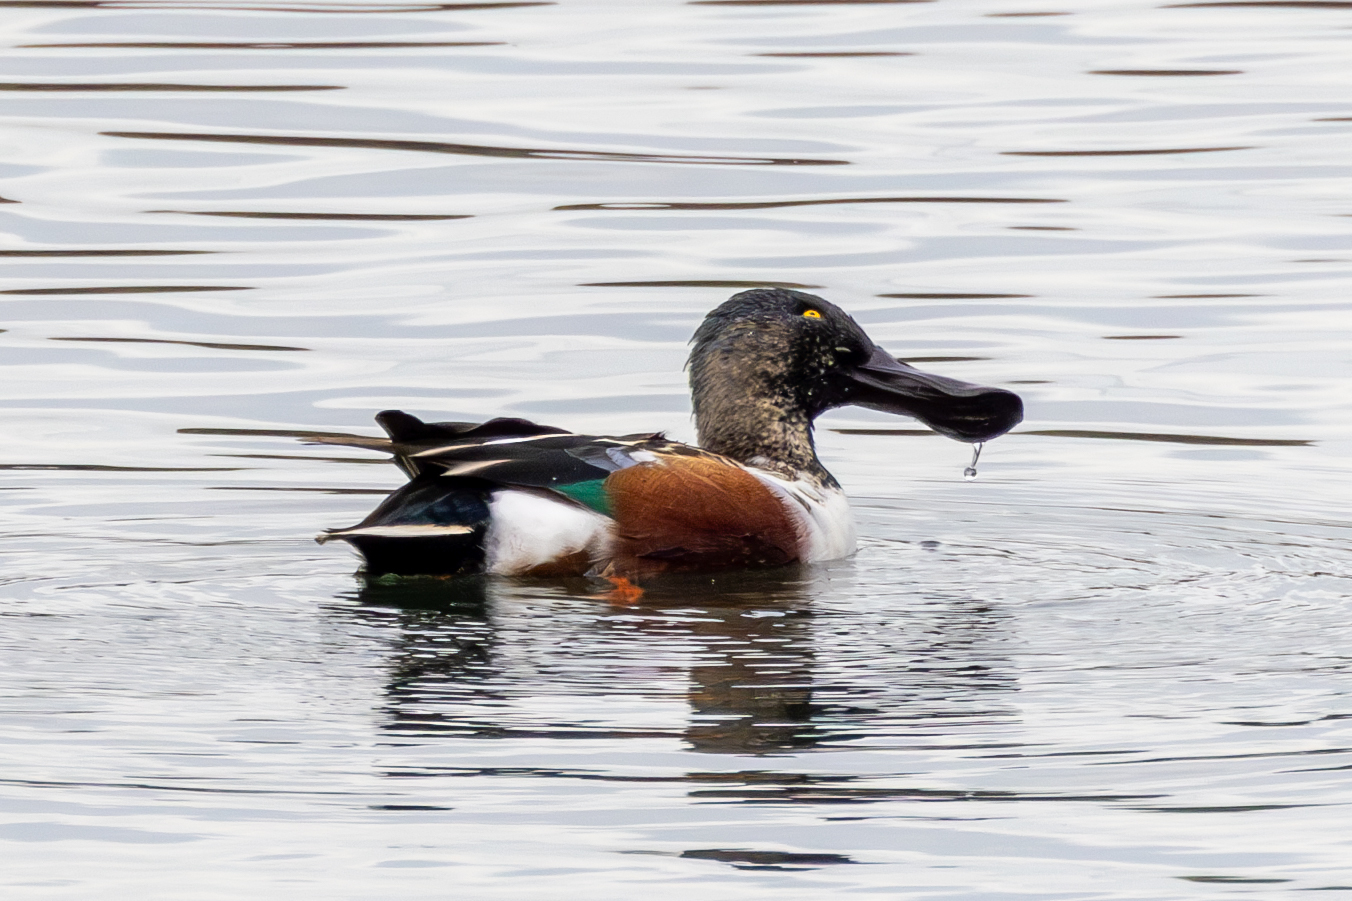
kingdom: Animalia
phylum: Chordata
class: Aves
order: Anseriformes
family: Anatidae
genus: Spatula
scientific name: Spatula clypeata
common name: Northern shoveler
